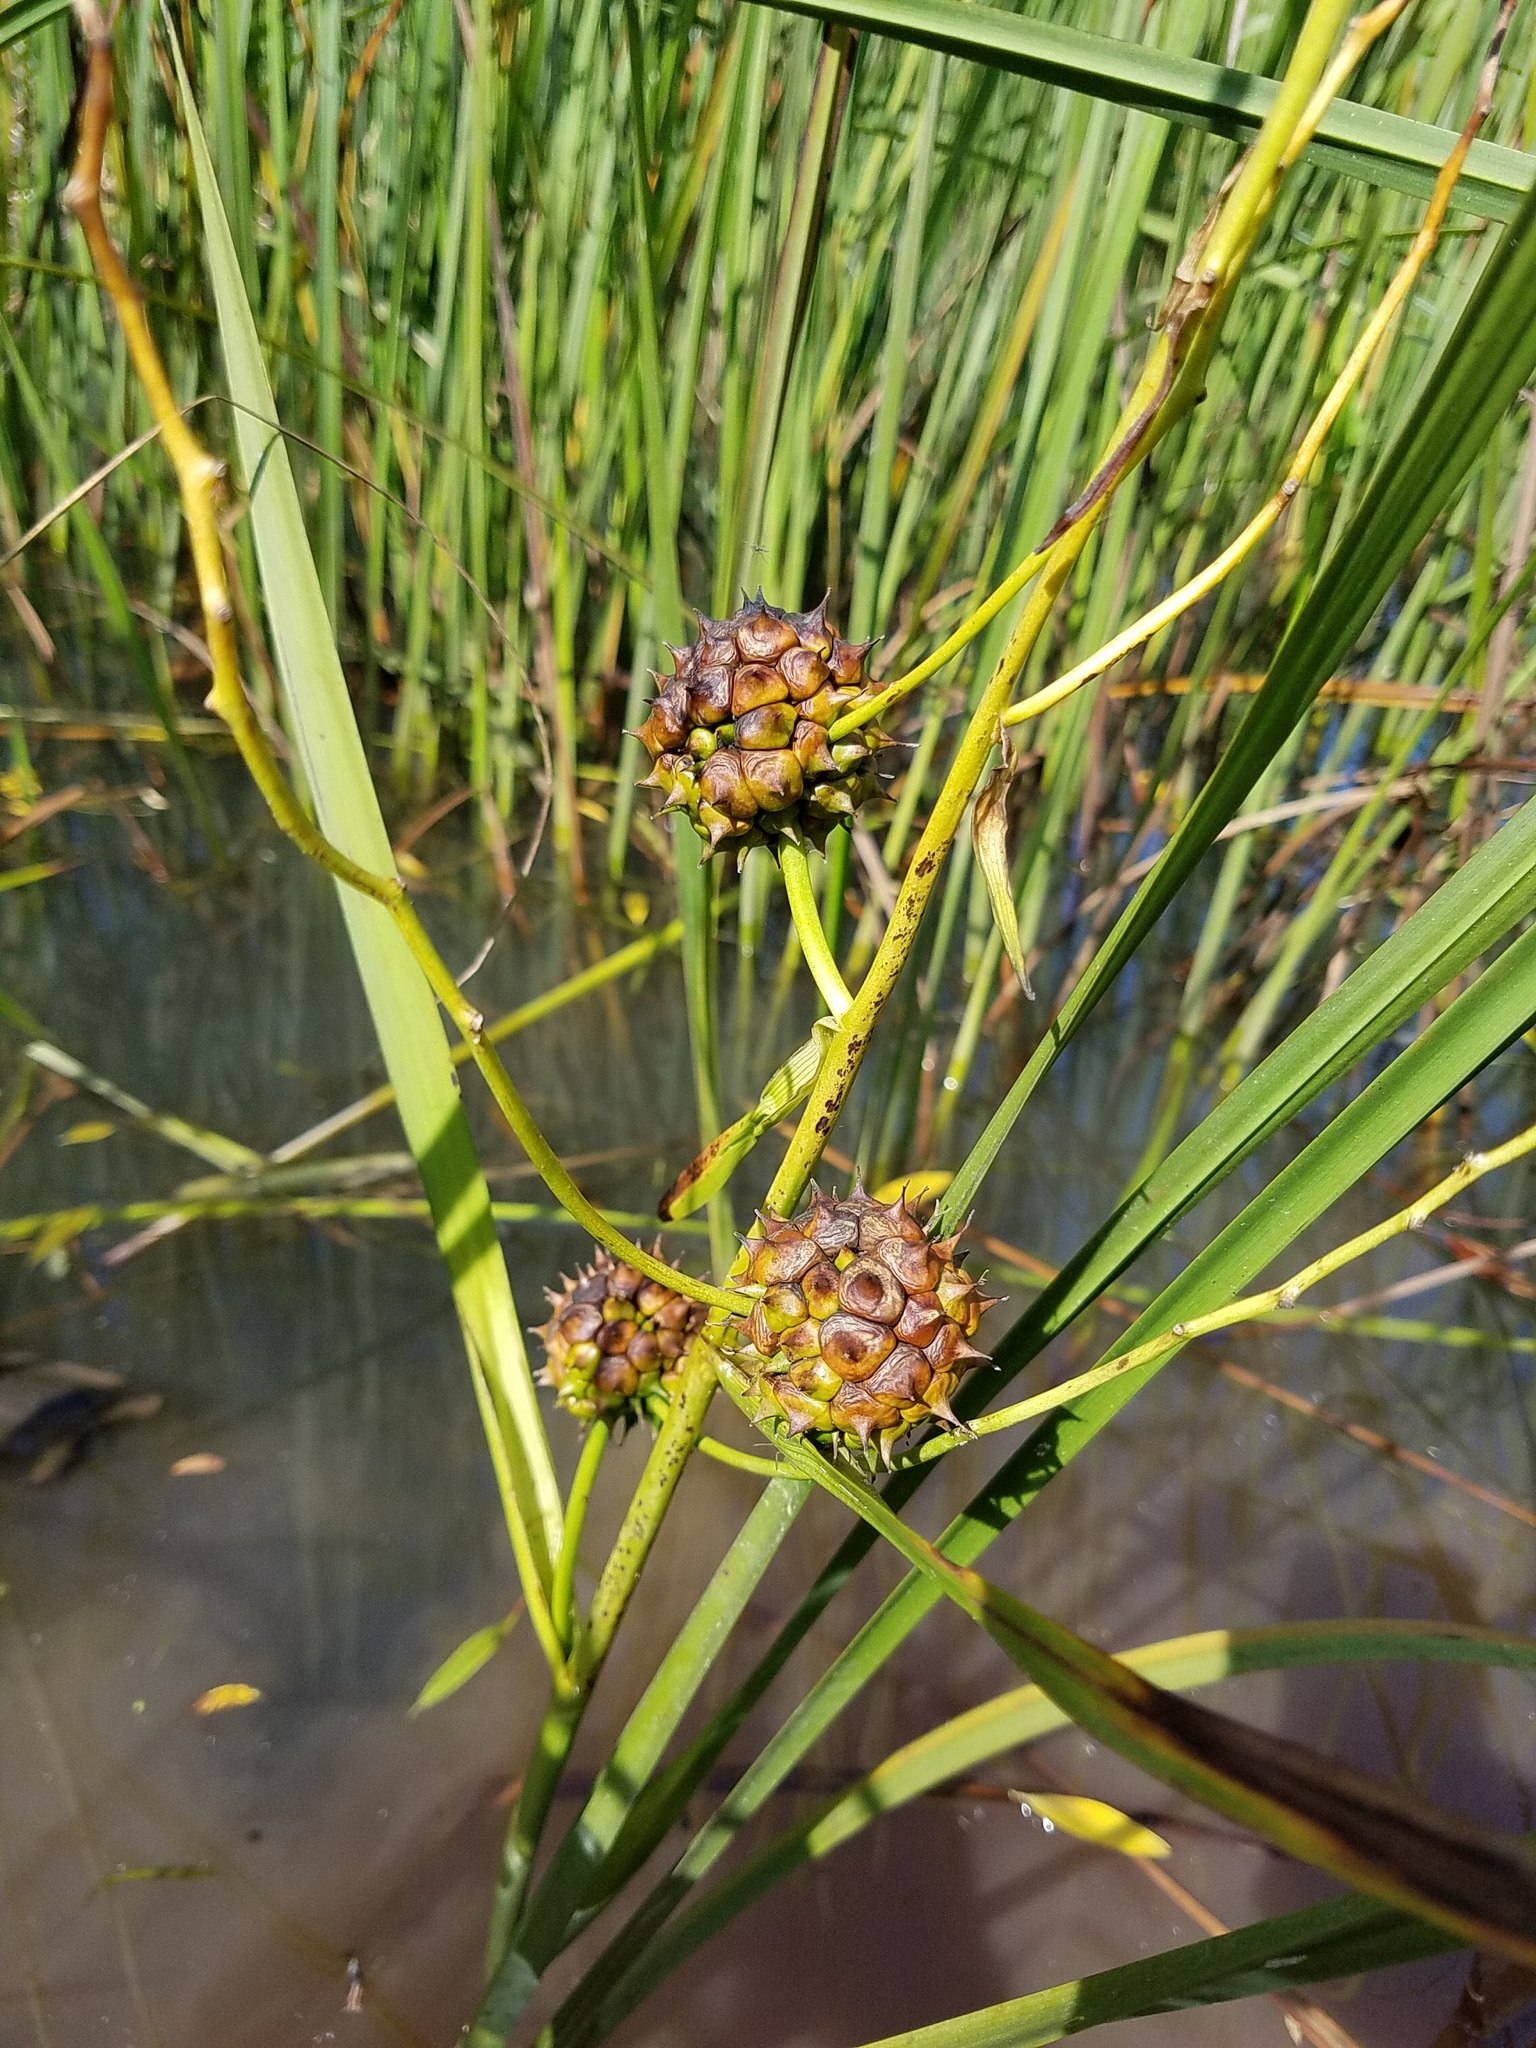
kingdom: Plantae
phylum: Tracheophyta
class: Liliopsida
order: Poales
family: Typhaceae
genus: Sparganium
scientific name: Sparganium eurycarpum
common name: Broad-fruited burreed
